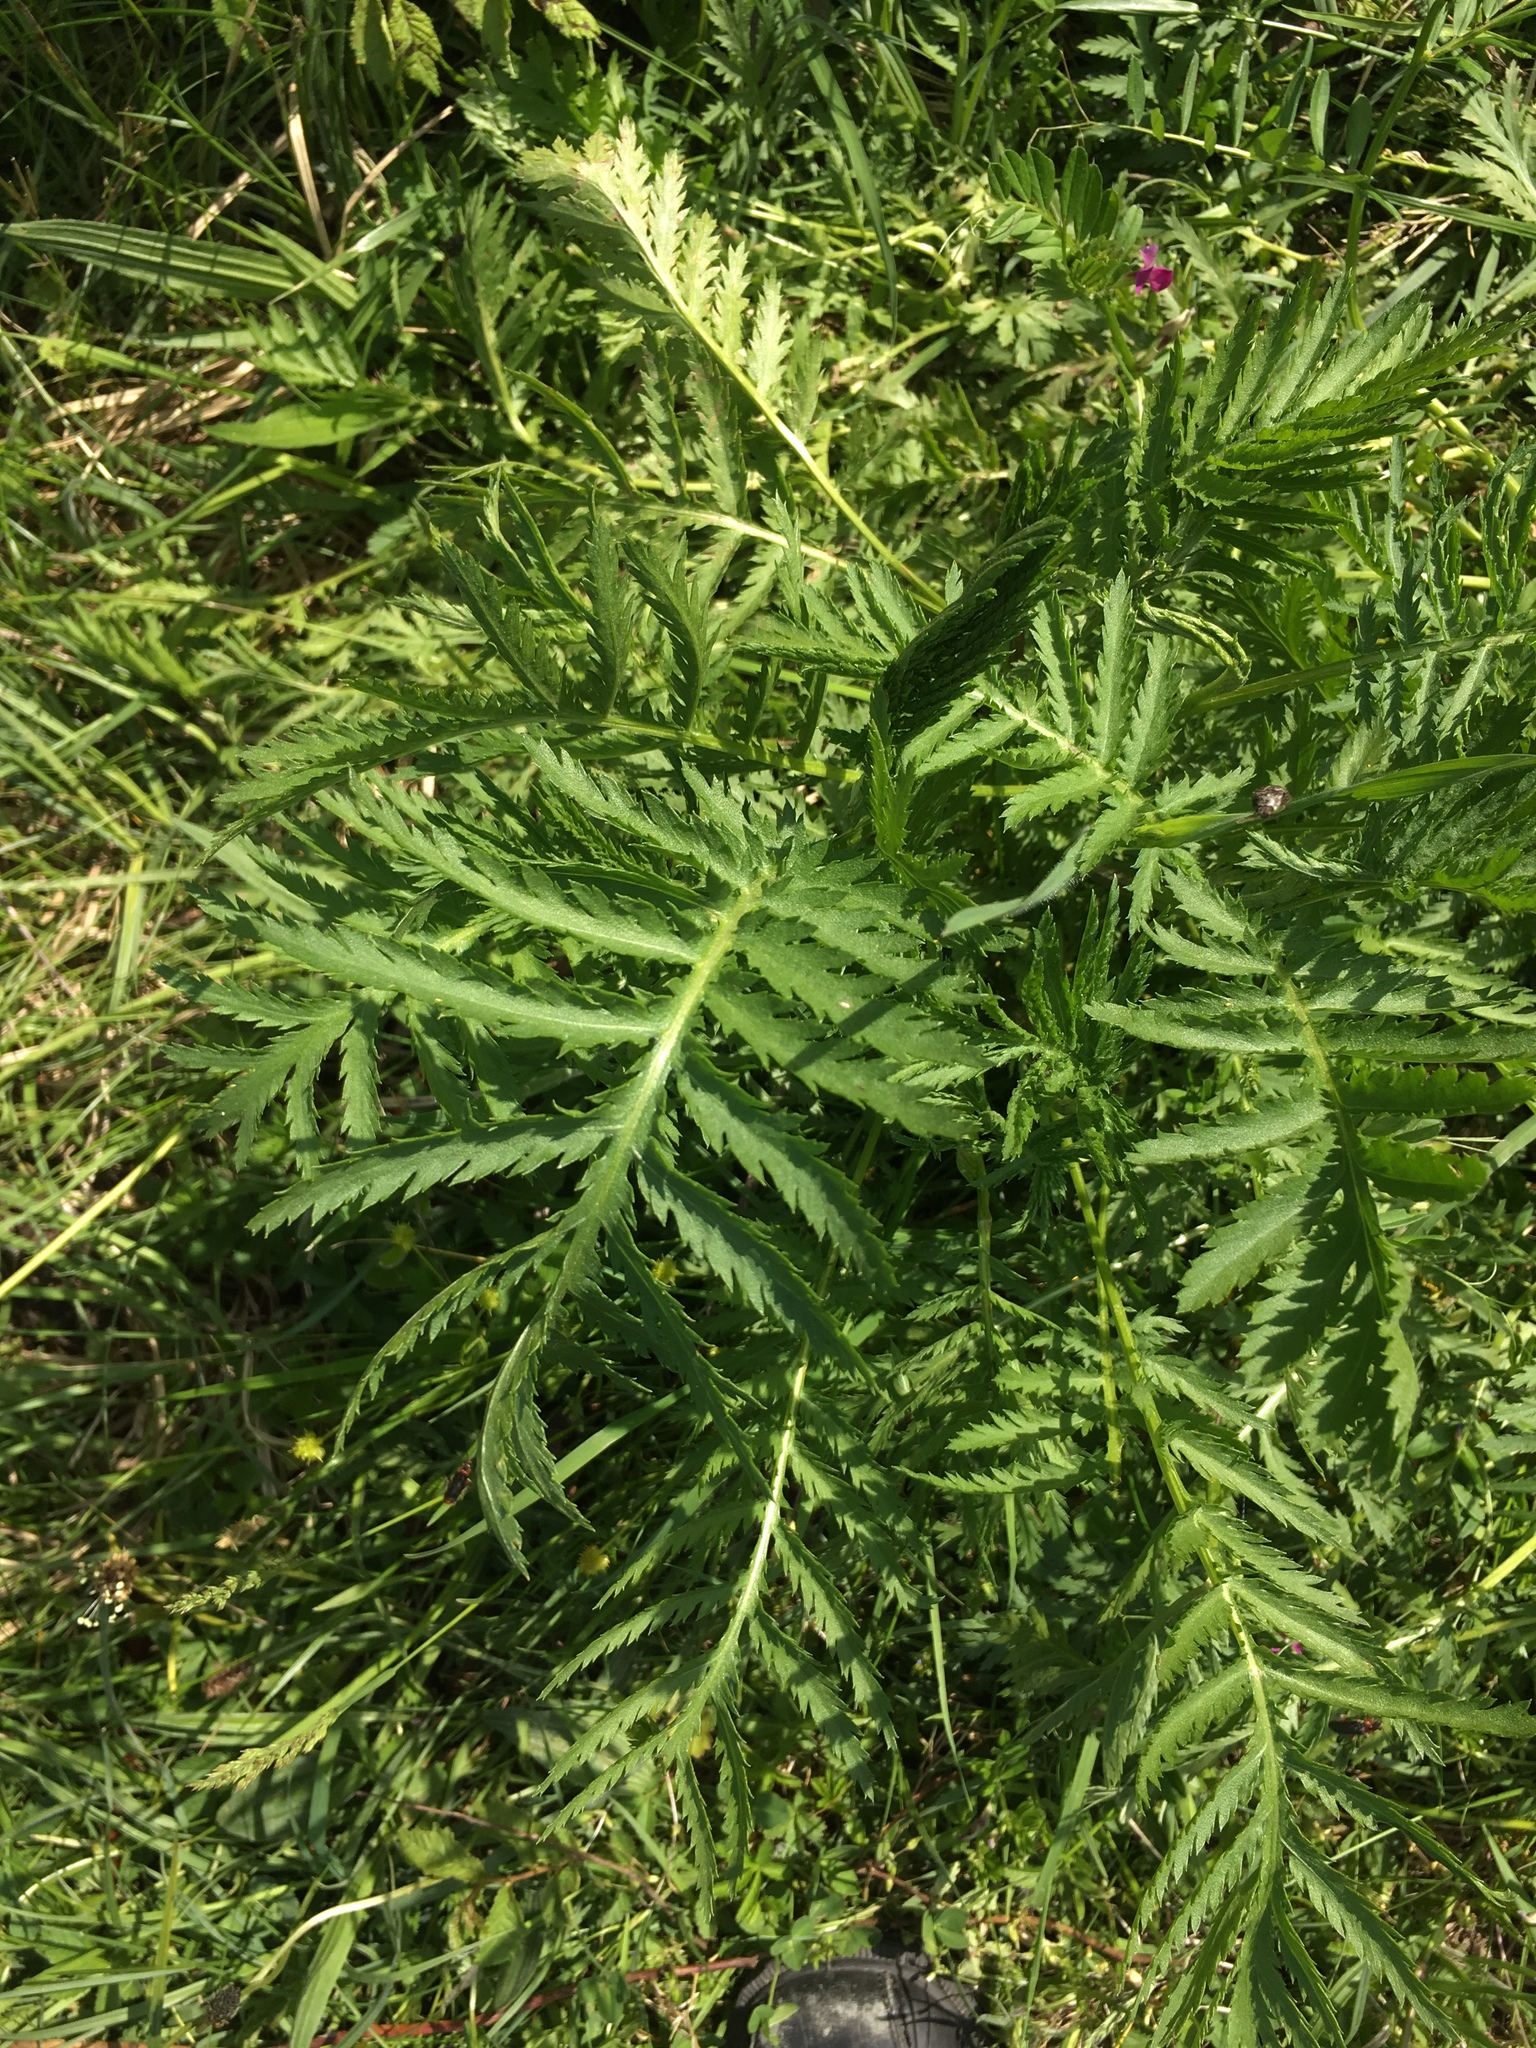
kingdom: Plantae
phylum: Tracheophyta
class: Magnoliopsida
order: Asterales
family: Asteraceae
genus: Tanacetum
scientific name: Tanacetum vulgare
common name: Common tansy
